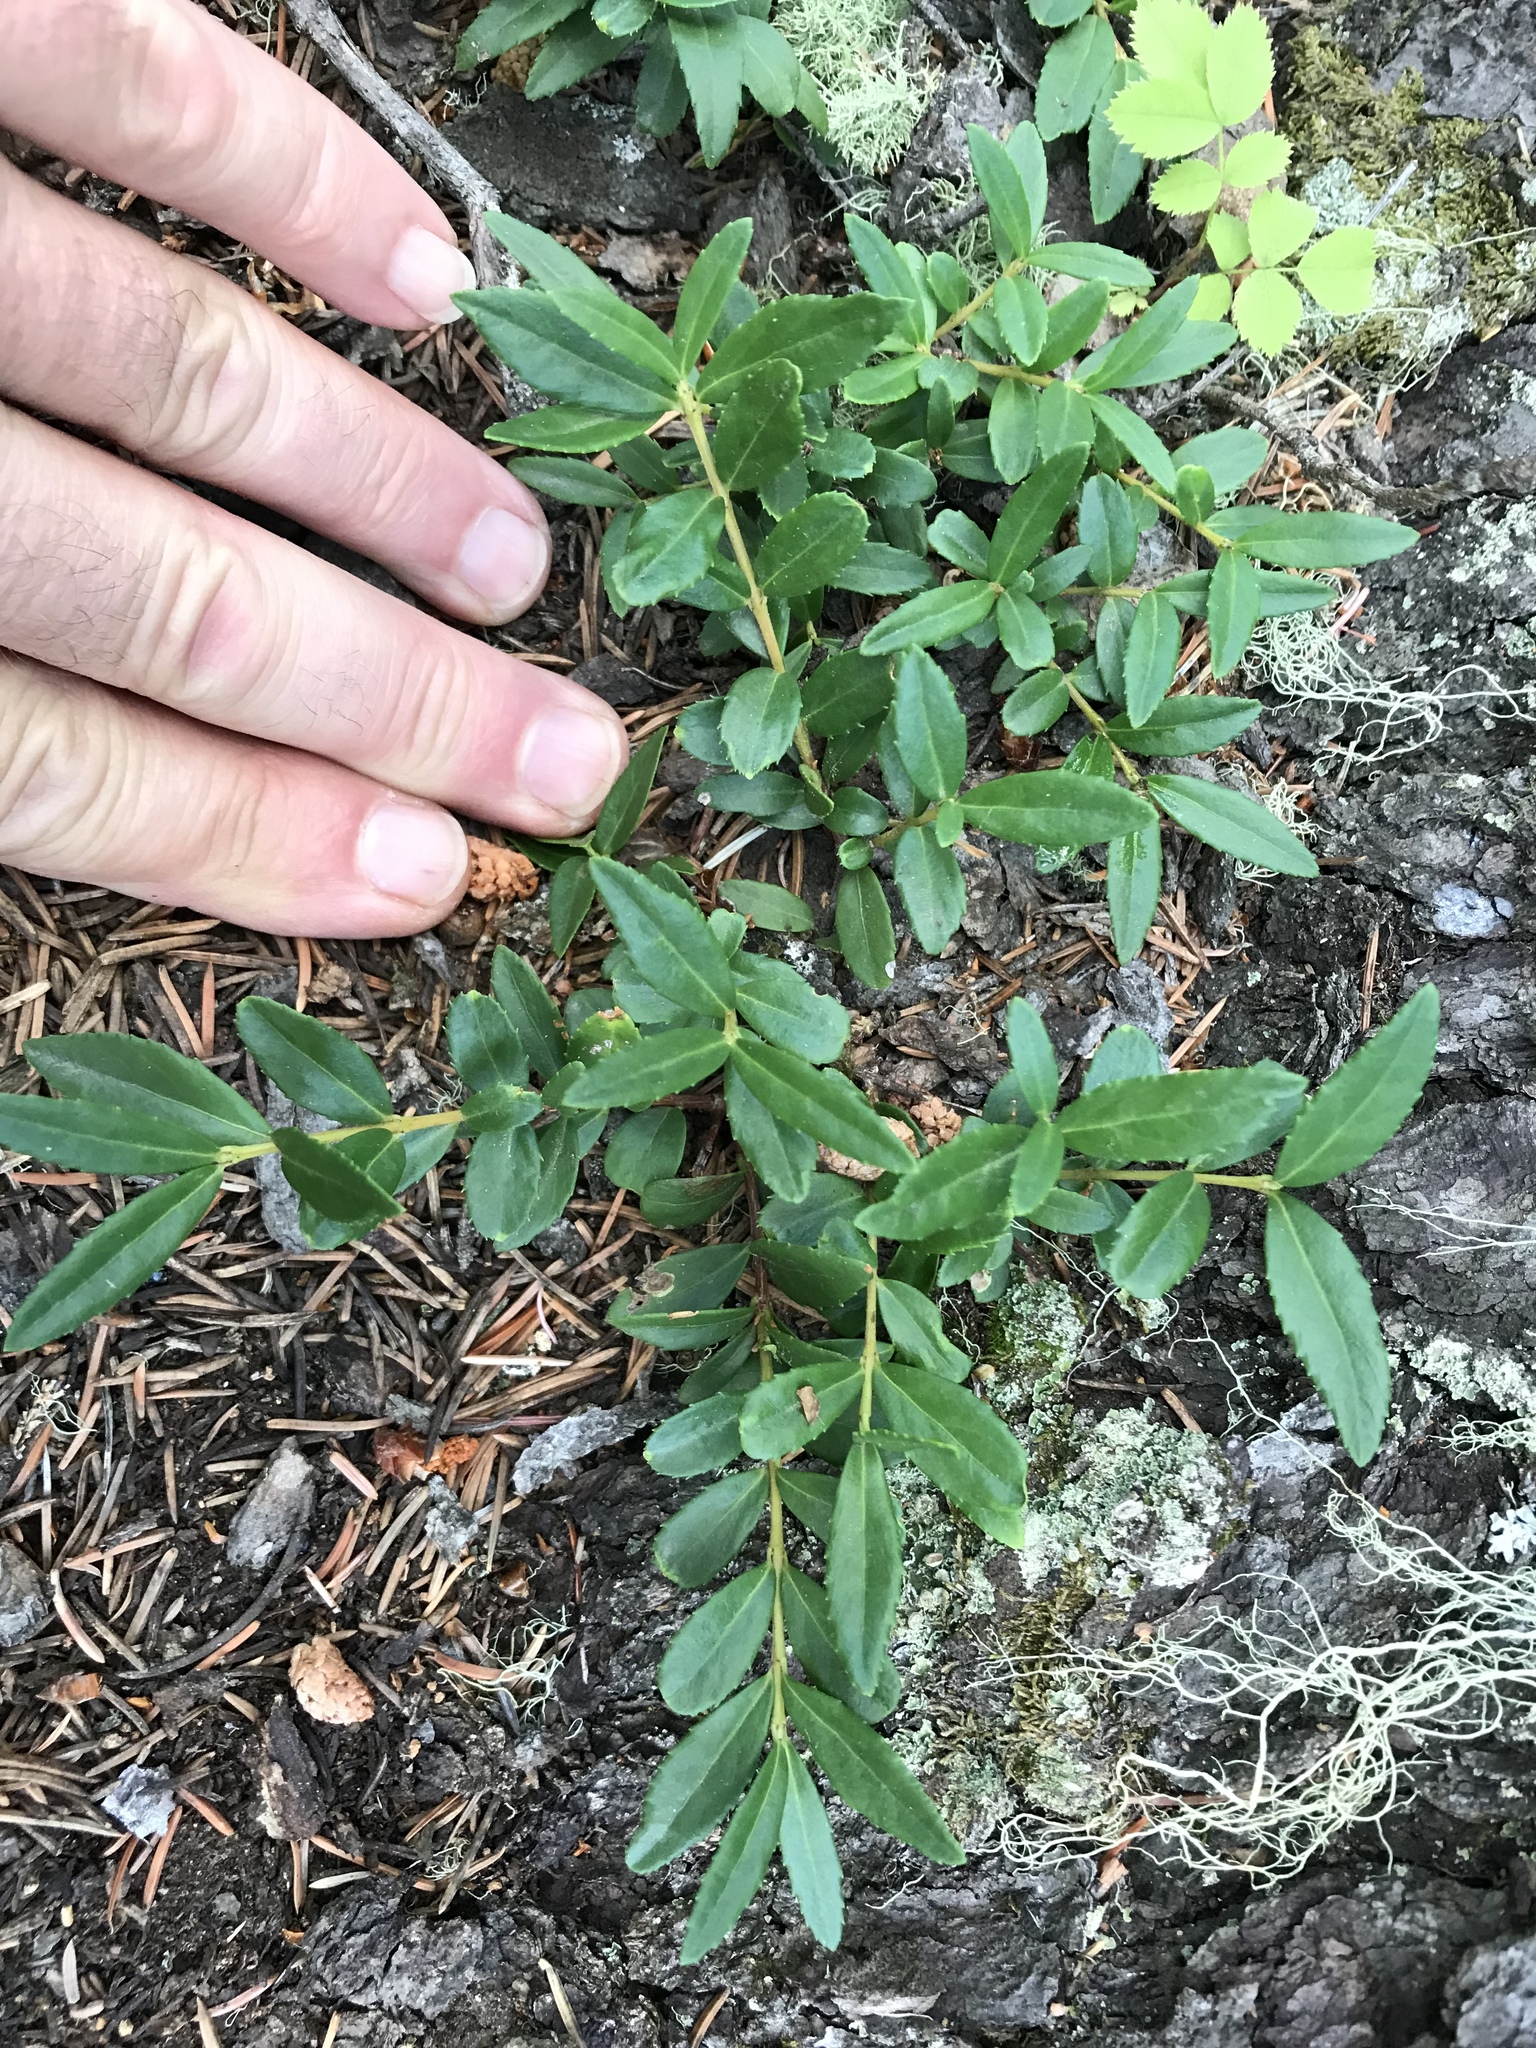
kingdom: Plantae
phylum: Tracheophyta
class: Magnoliopsida
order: Celastrales
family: Celastraceae
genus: Paxistima
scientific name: Paxistima myrsinites
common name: Mountain-lover
